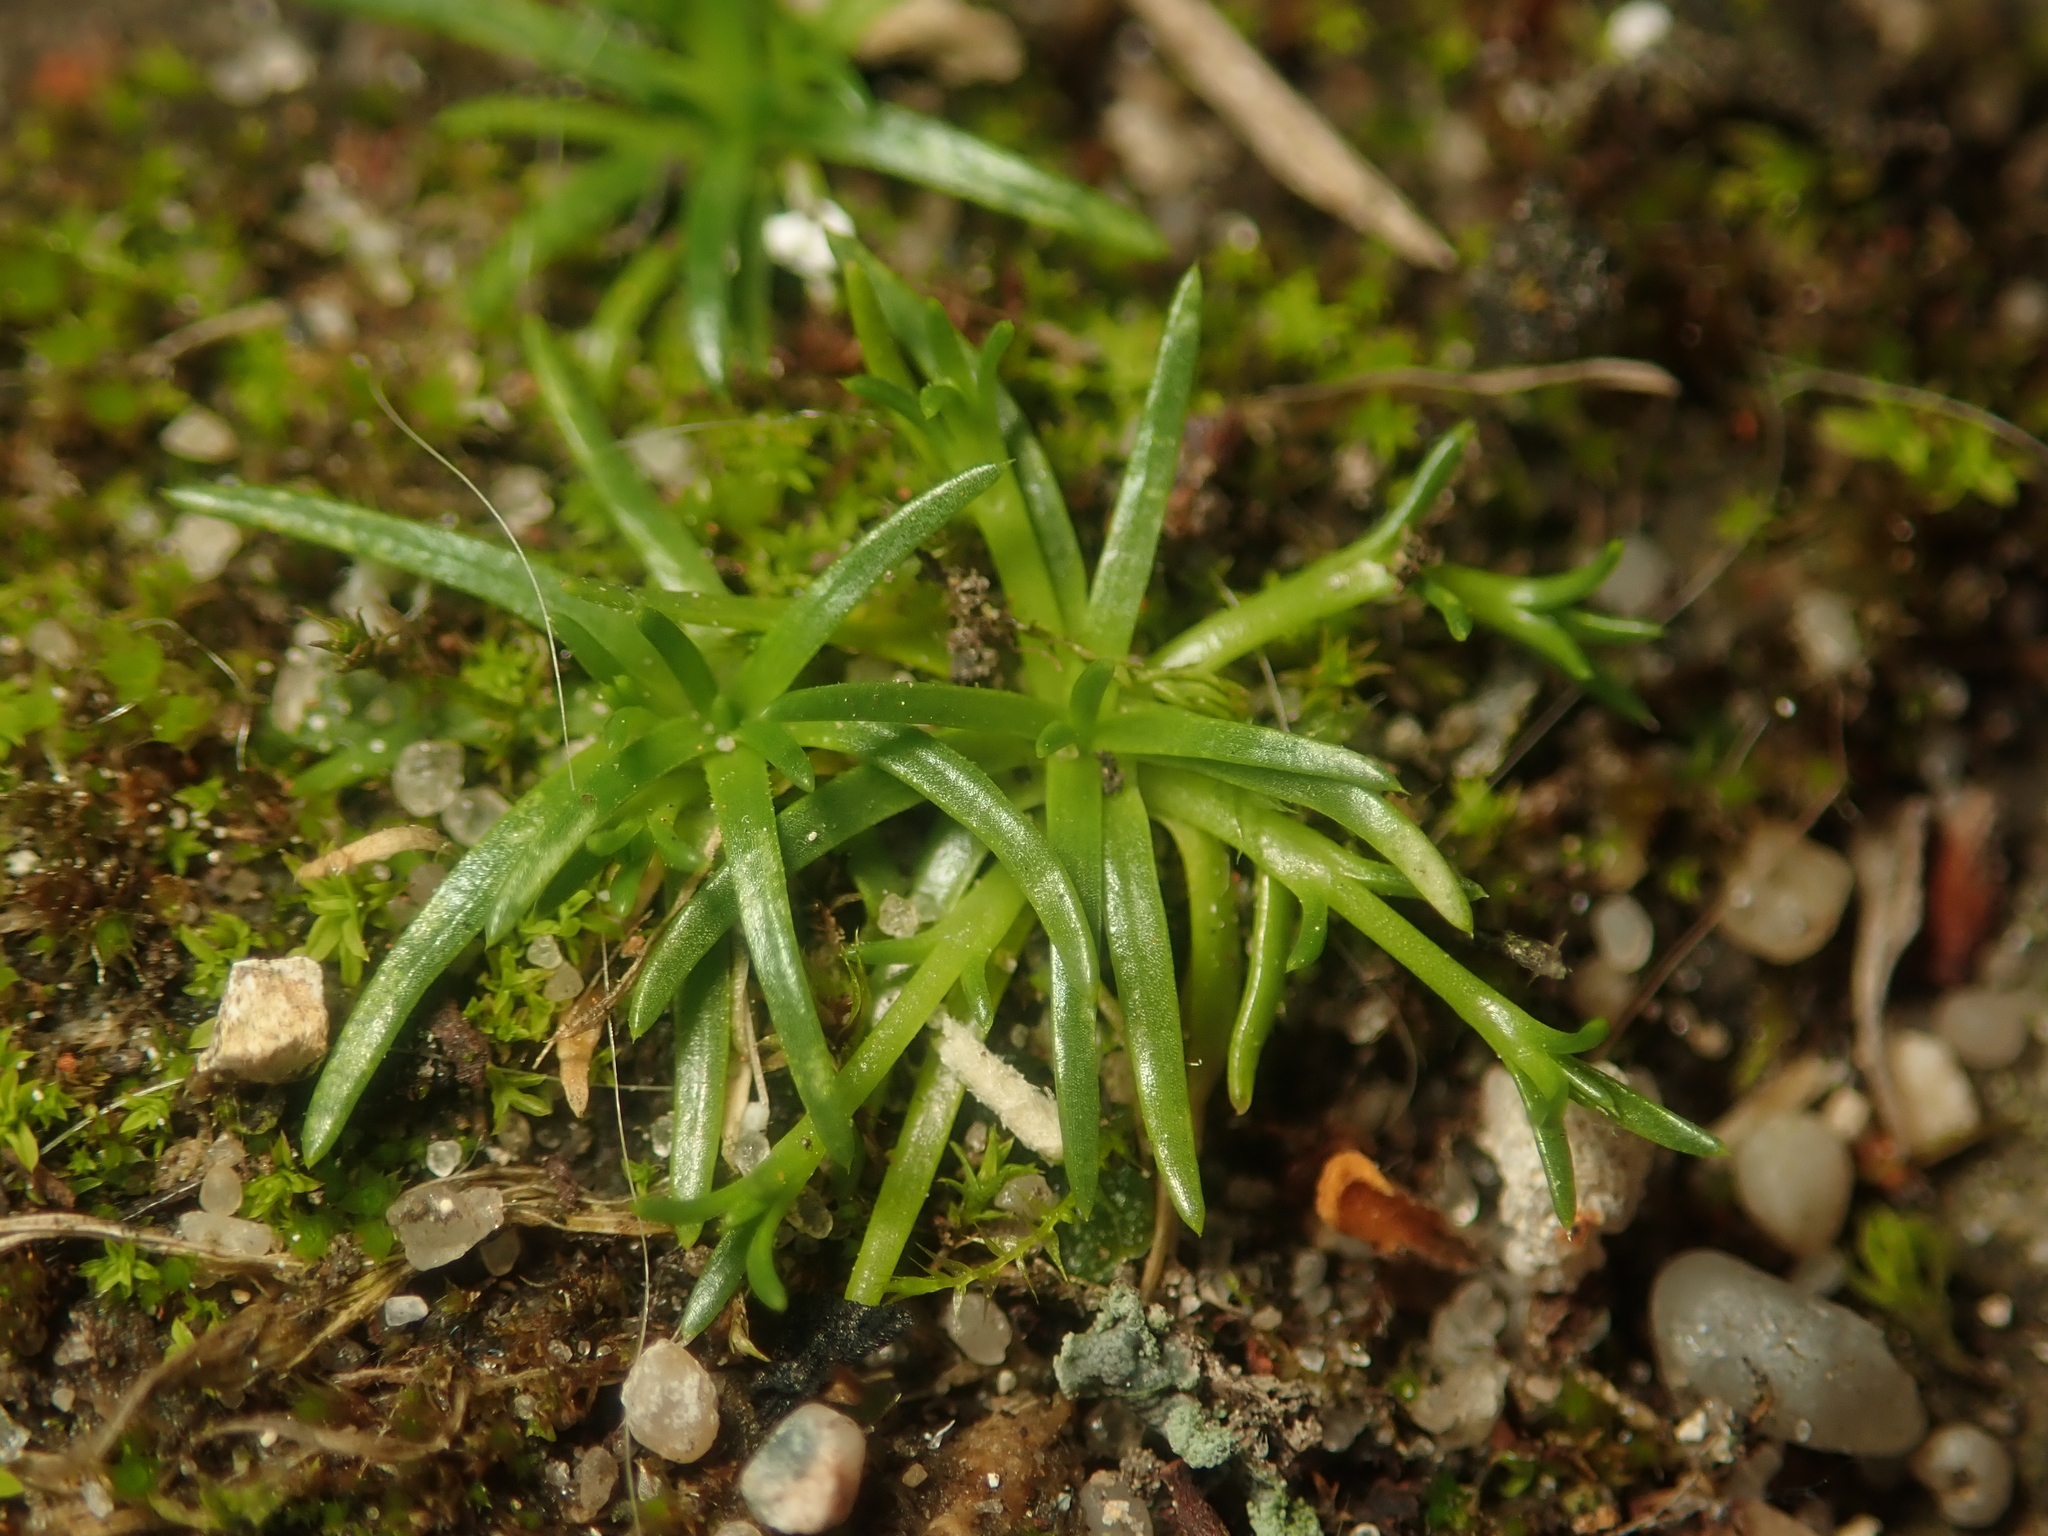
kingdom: Plantae
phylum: Tracheophyta
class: Magnoliopsida
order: Caryophyllales
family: Caryophyllaceae
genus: Sagina
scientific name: Sagina procumbens
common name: Procumbent pearlwort
